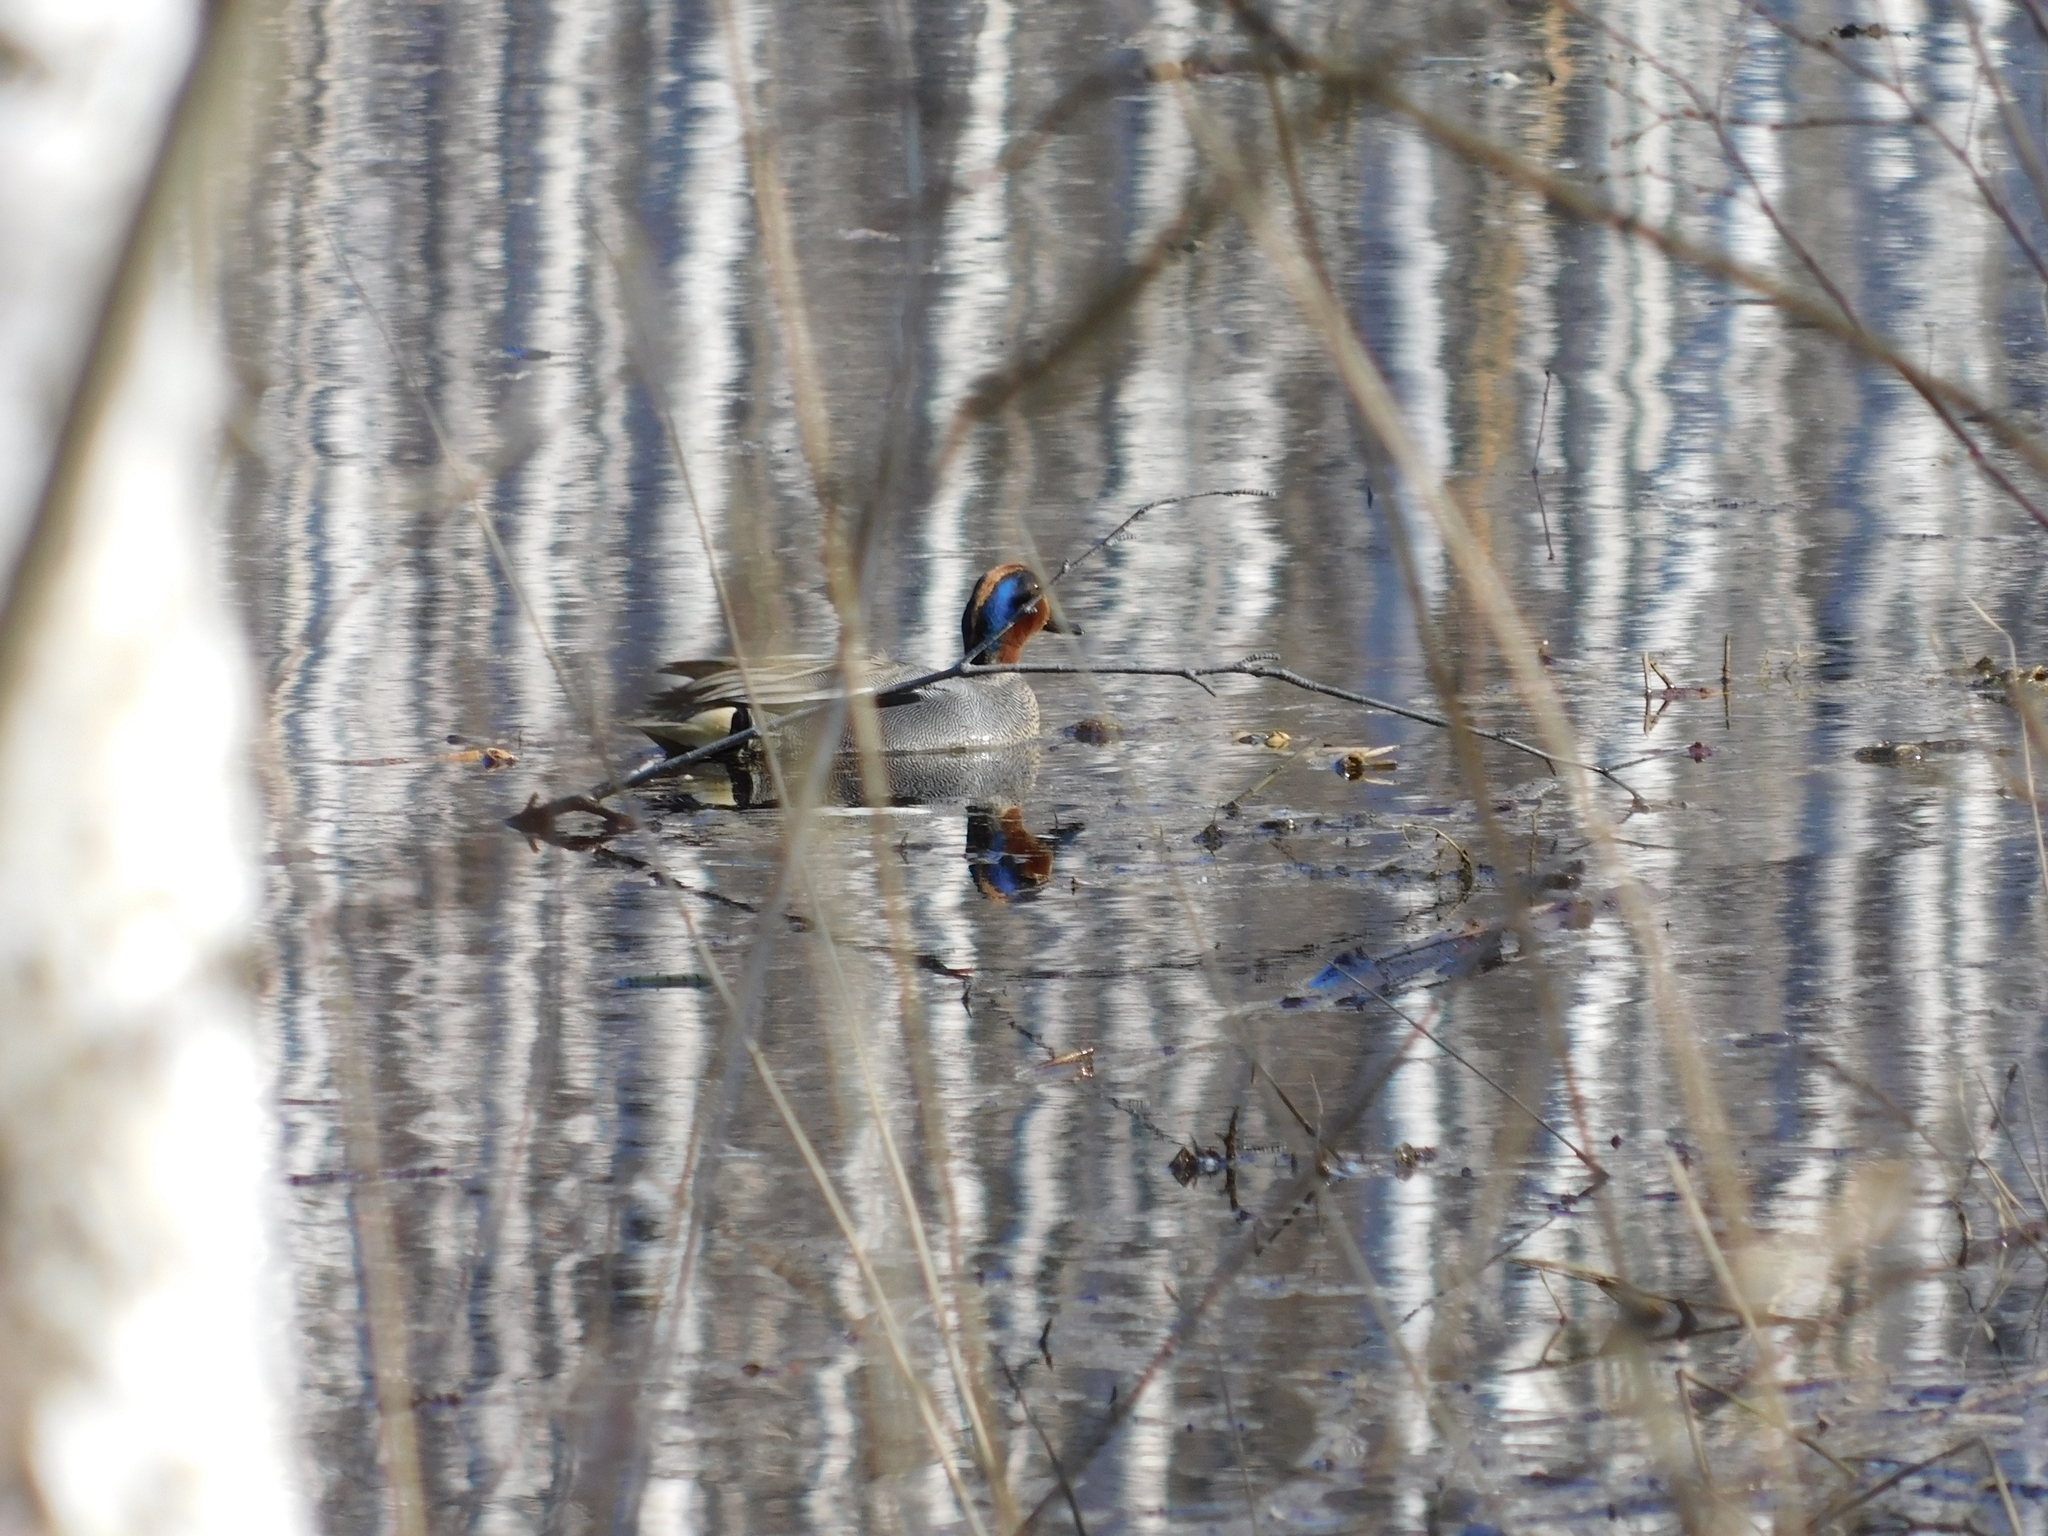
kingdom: Animalia
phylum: Chordata
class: Aves
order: Anseriformes
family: Anatidae
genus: Anas
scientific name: Anas crecca
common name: Eurasian teal
